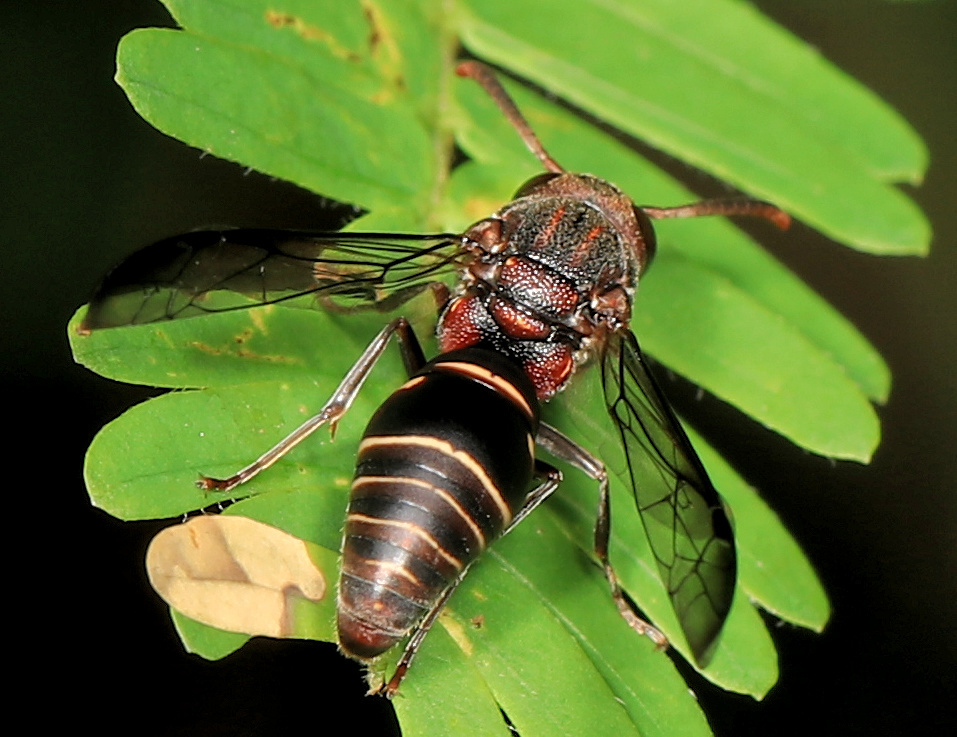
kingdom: Animalia
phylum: Arthropoda
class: Insecta
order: Hymenoptera
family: Eumenidae
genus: Antodynerus
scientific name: Antodynerus
